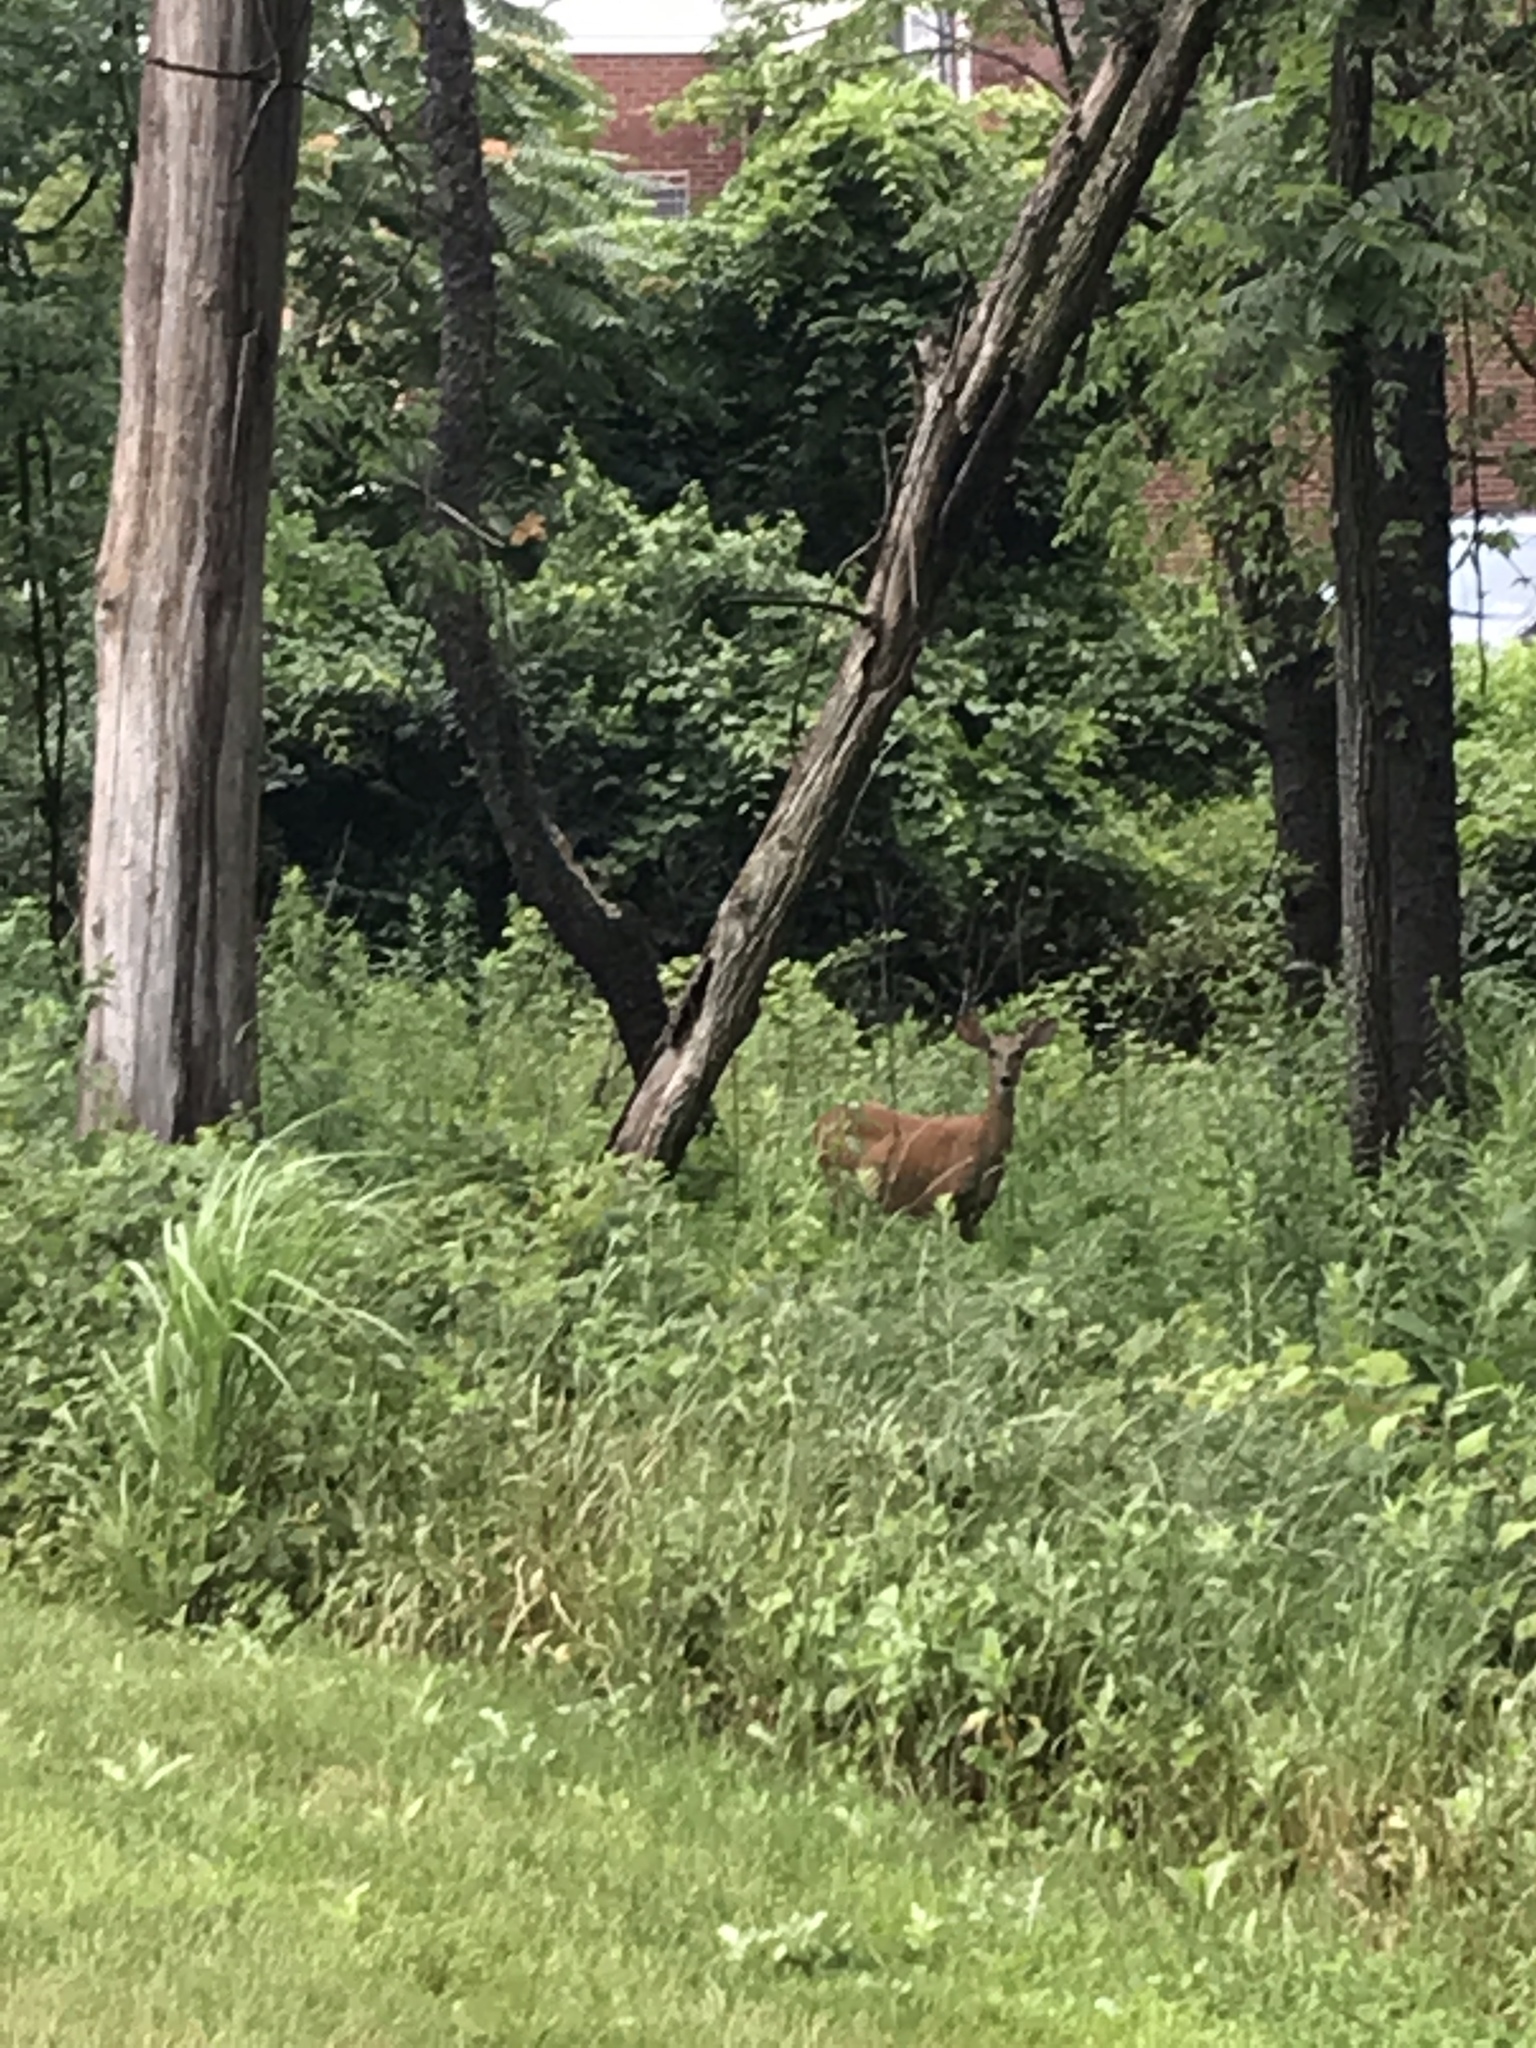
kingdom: Animalia
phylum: Chordata
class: Mammalia
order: Artiodactyla
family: Cervidae
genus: Odocoileus
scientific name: Odocoileus virginianus
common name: White-tailed deer
